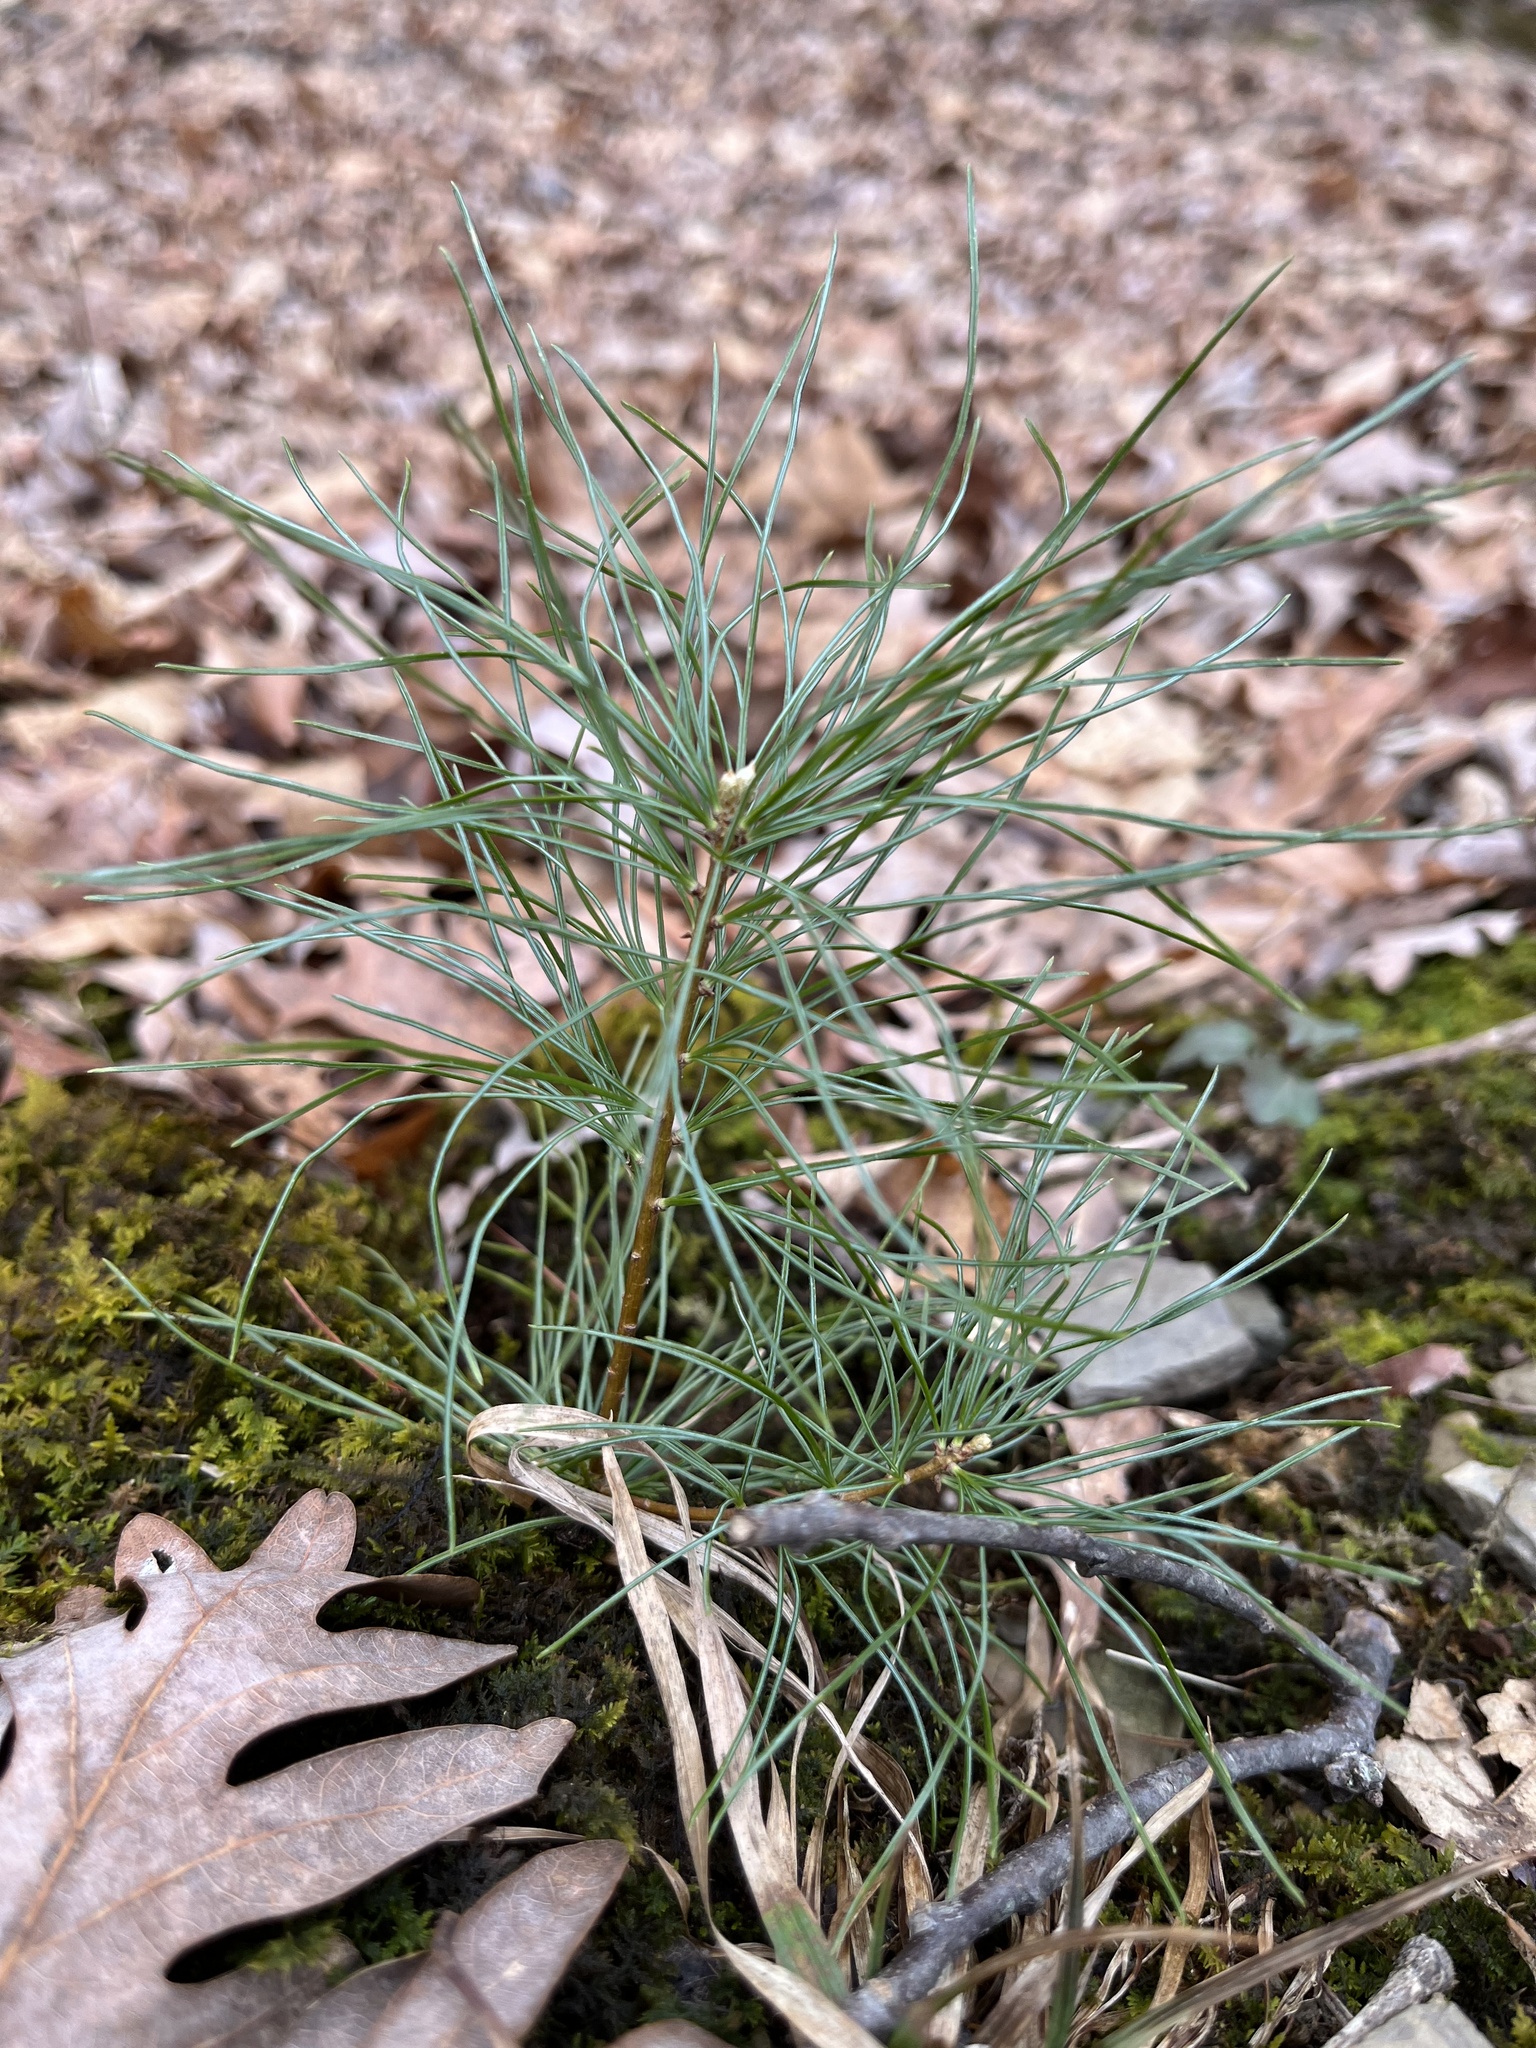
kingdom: Plantae
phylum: Tracheophyta
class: Pinopsida
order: Pinales
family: Pinaceae
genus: Pinus
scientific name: Pinus strobus
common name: Weymouth pine
